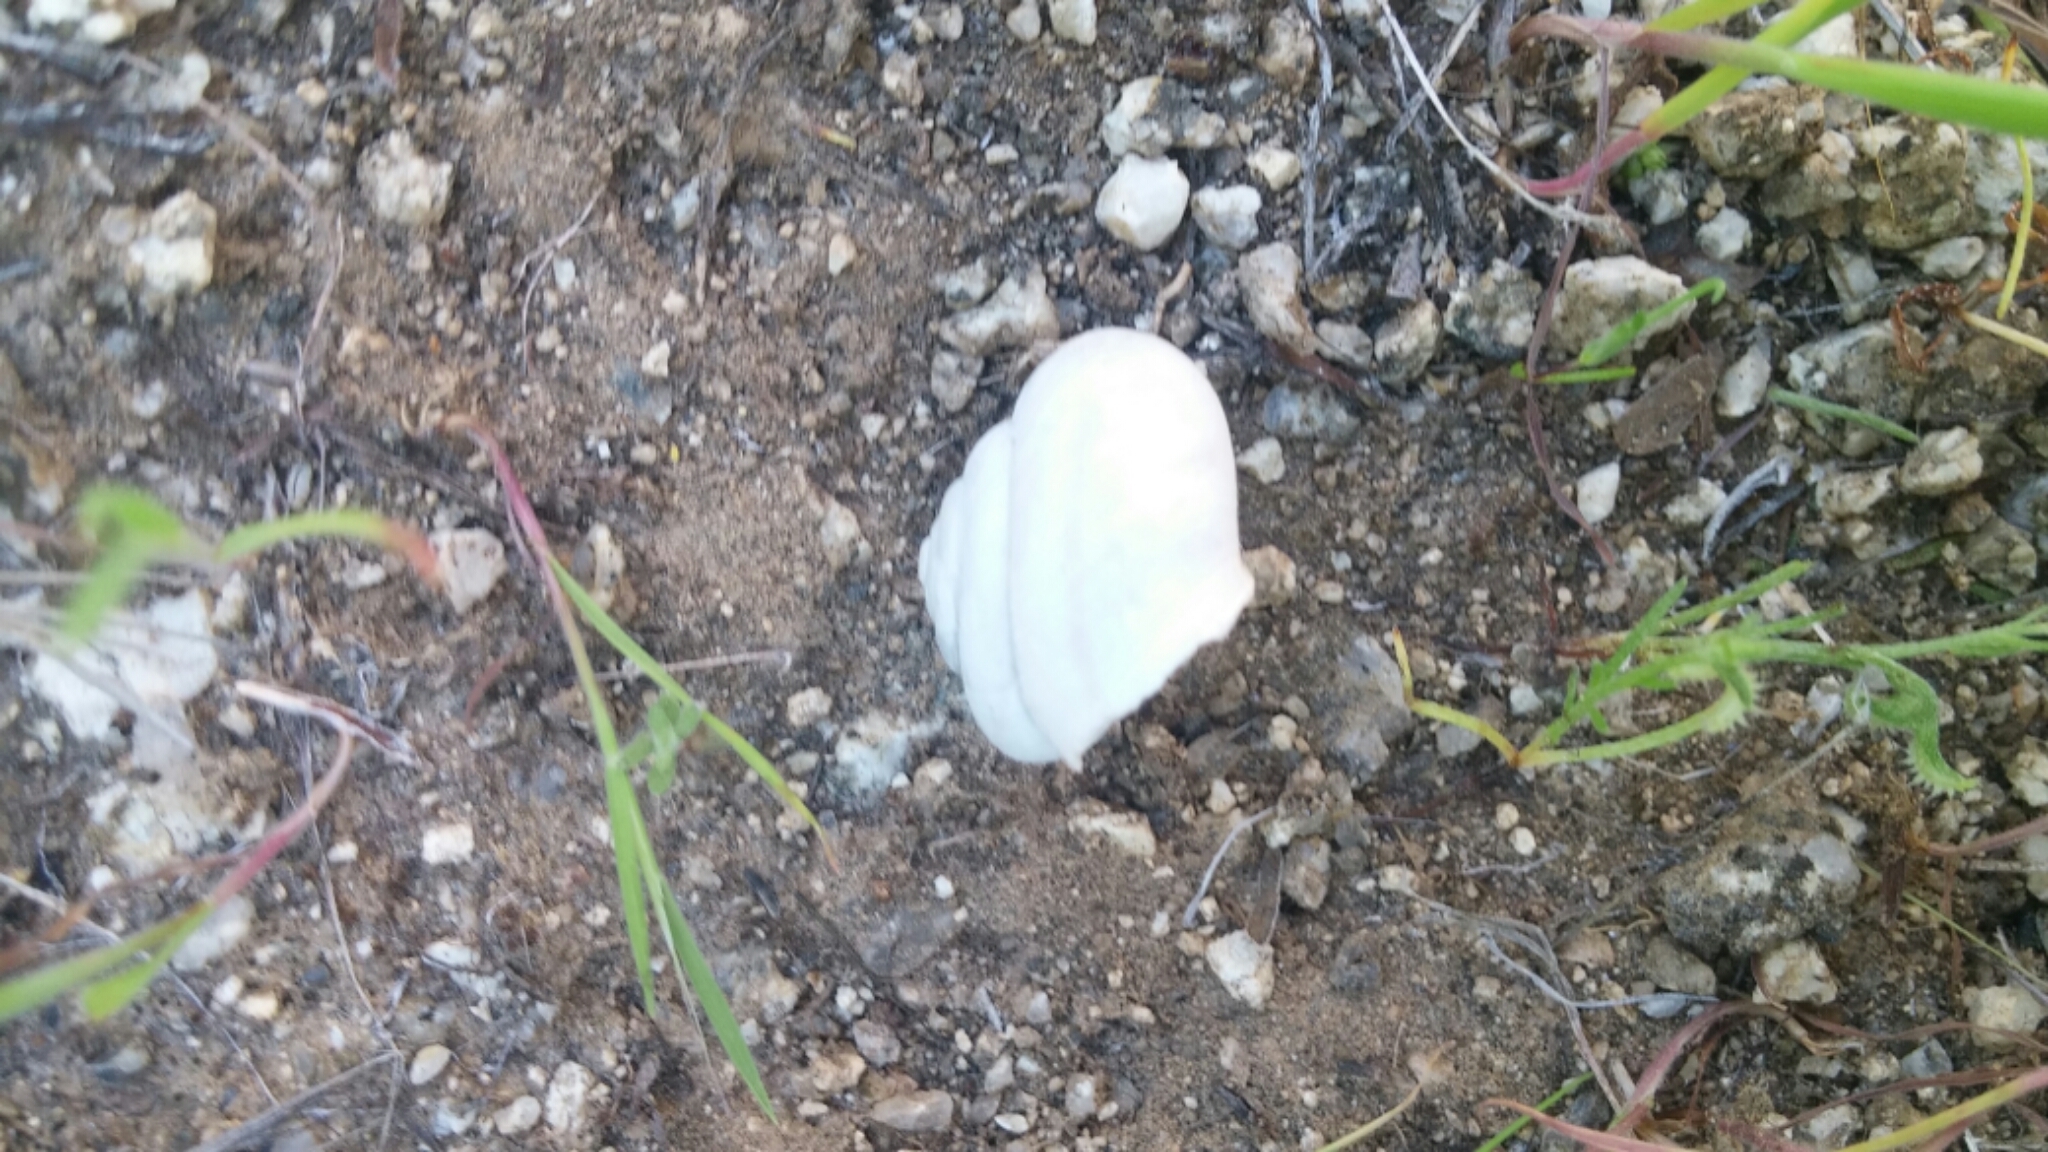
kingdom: Animalia
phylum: Mollusca
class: Gastropoda
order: Stylommatophora
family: Xanthonychidae
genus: Sonorelix
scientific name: Sonorelix borregoensis
